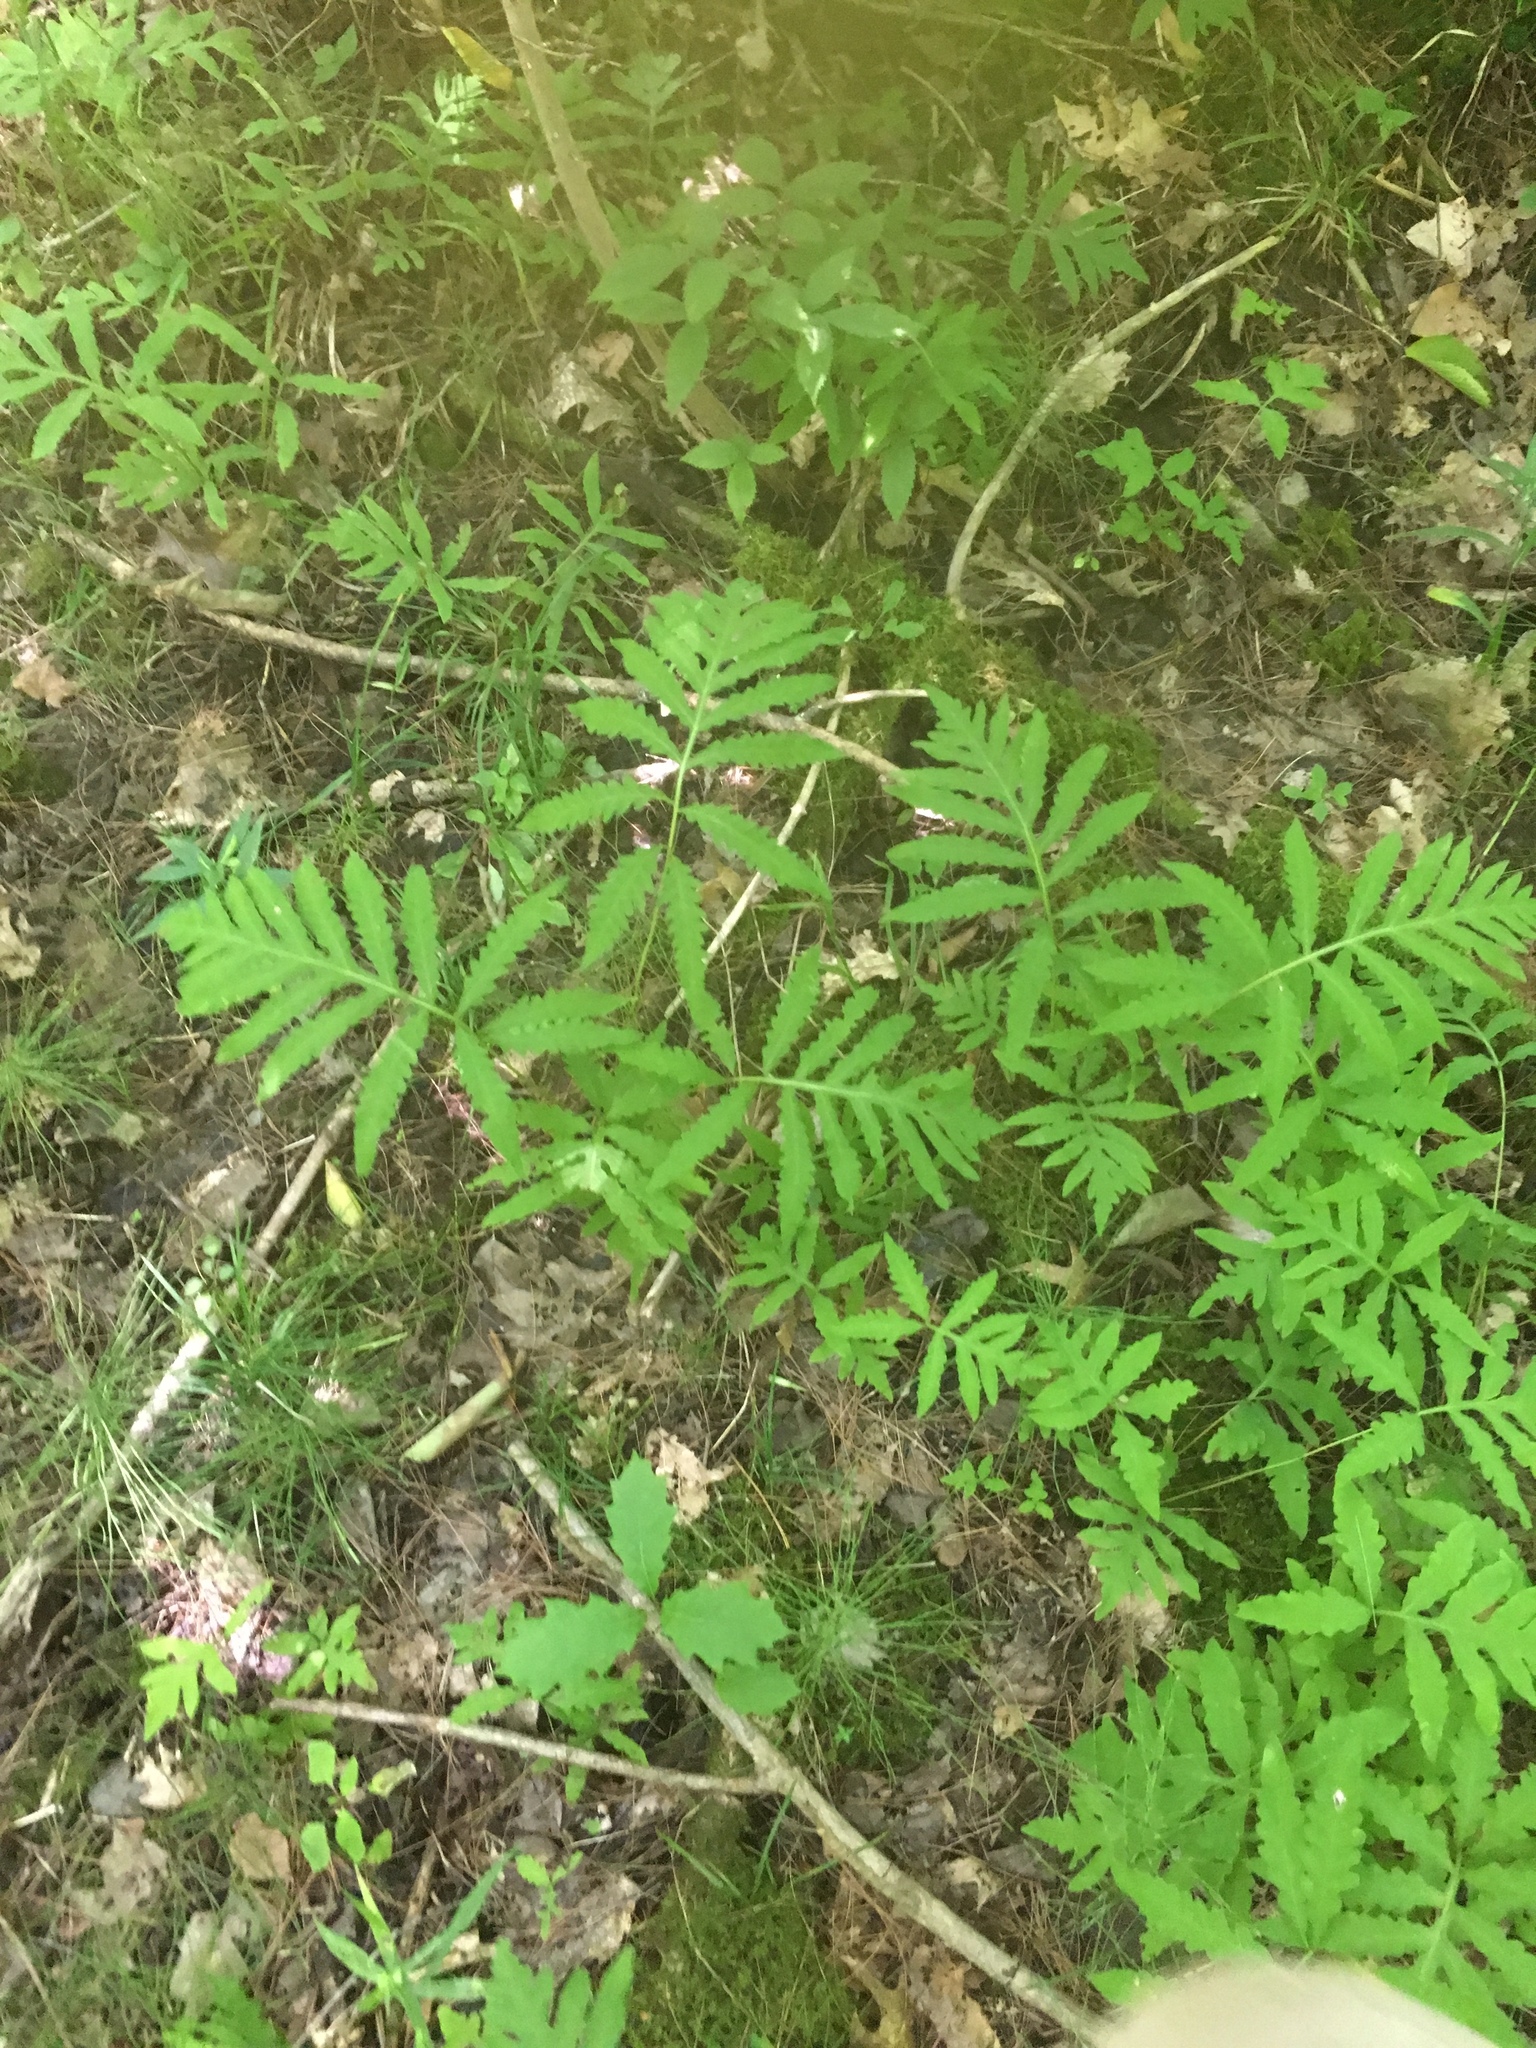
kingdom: Plantae
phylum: Tracheophyta
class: Polypodiopsida
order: Polypodiales
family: Onocleaceae
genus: Onoclea
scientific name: Onoclea sensibilis
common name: Sensitive fern
